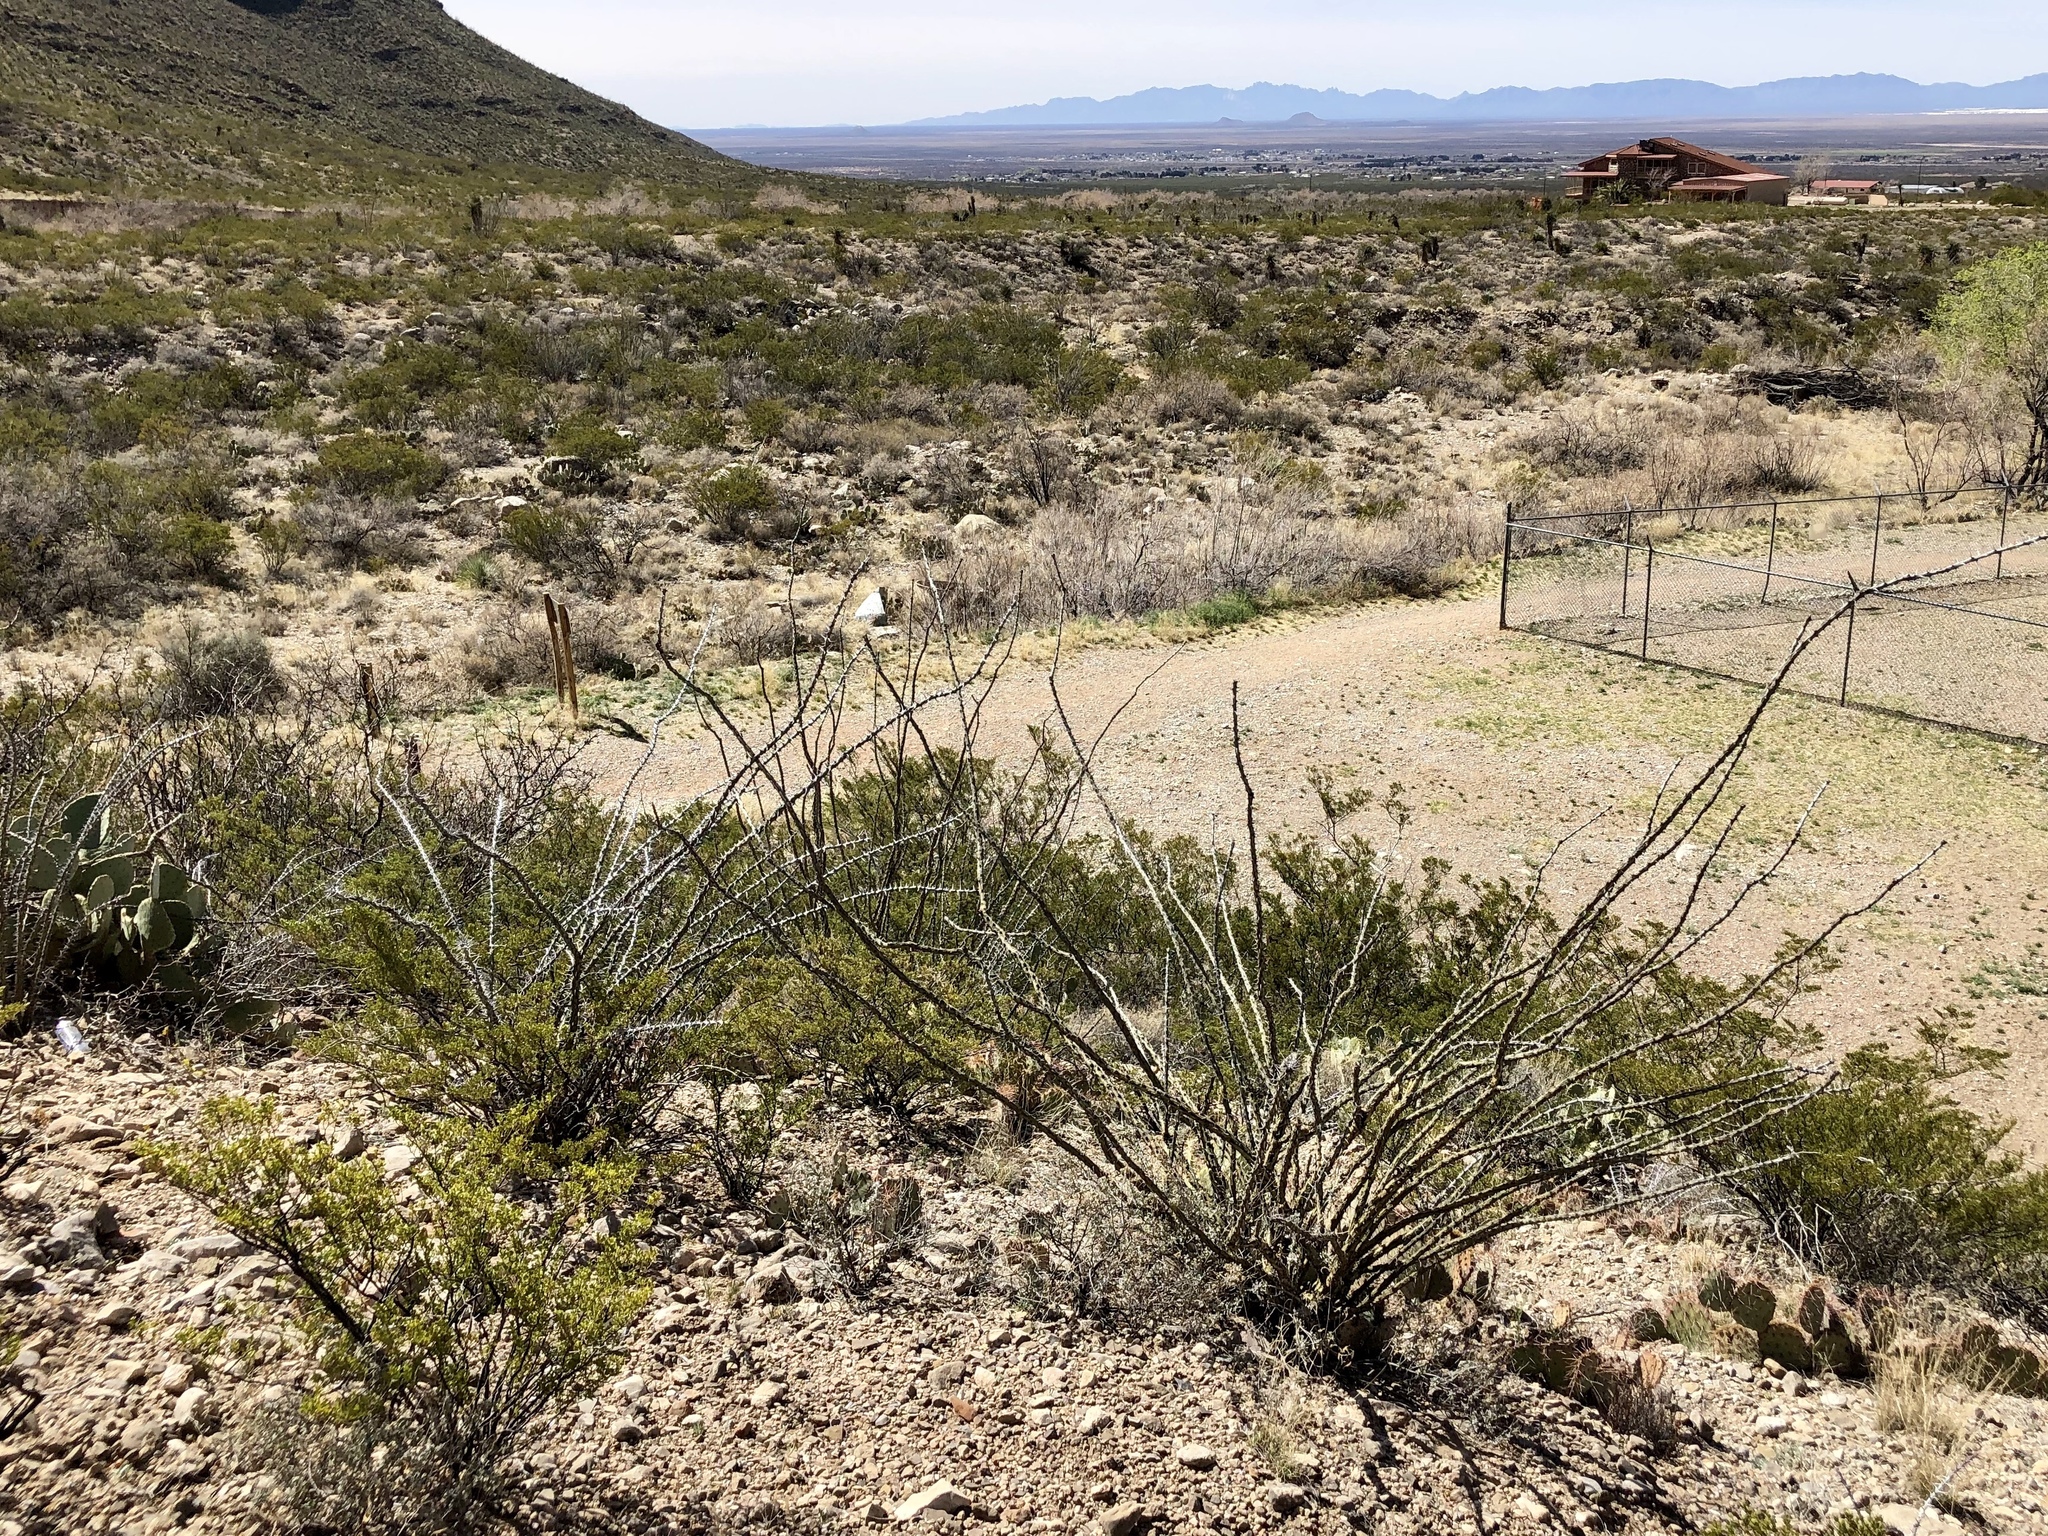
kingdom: Plantae
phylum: Tracheophyta
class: Magnoliopsida
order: Ericales
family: Fouquieriaceae
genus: Fouquieria
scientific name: Fouquieria splendens
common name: Vine-cactus
